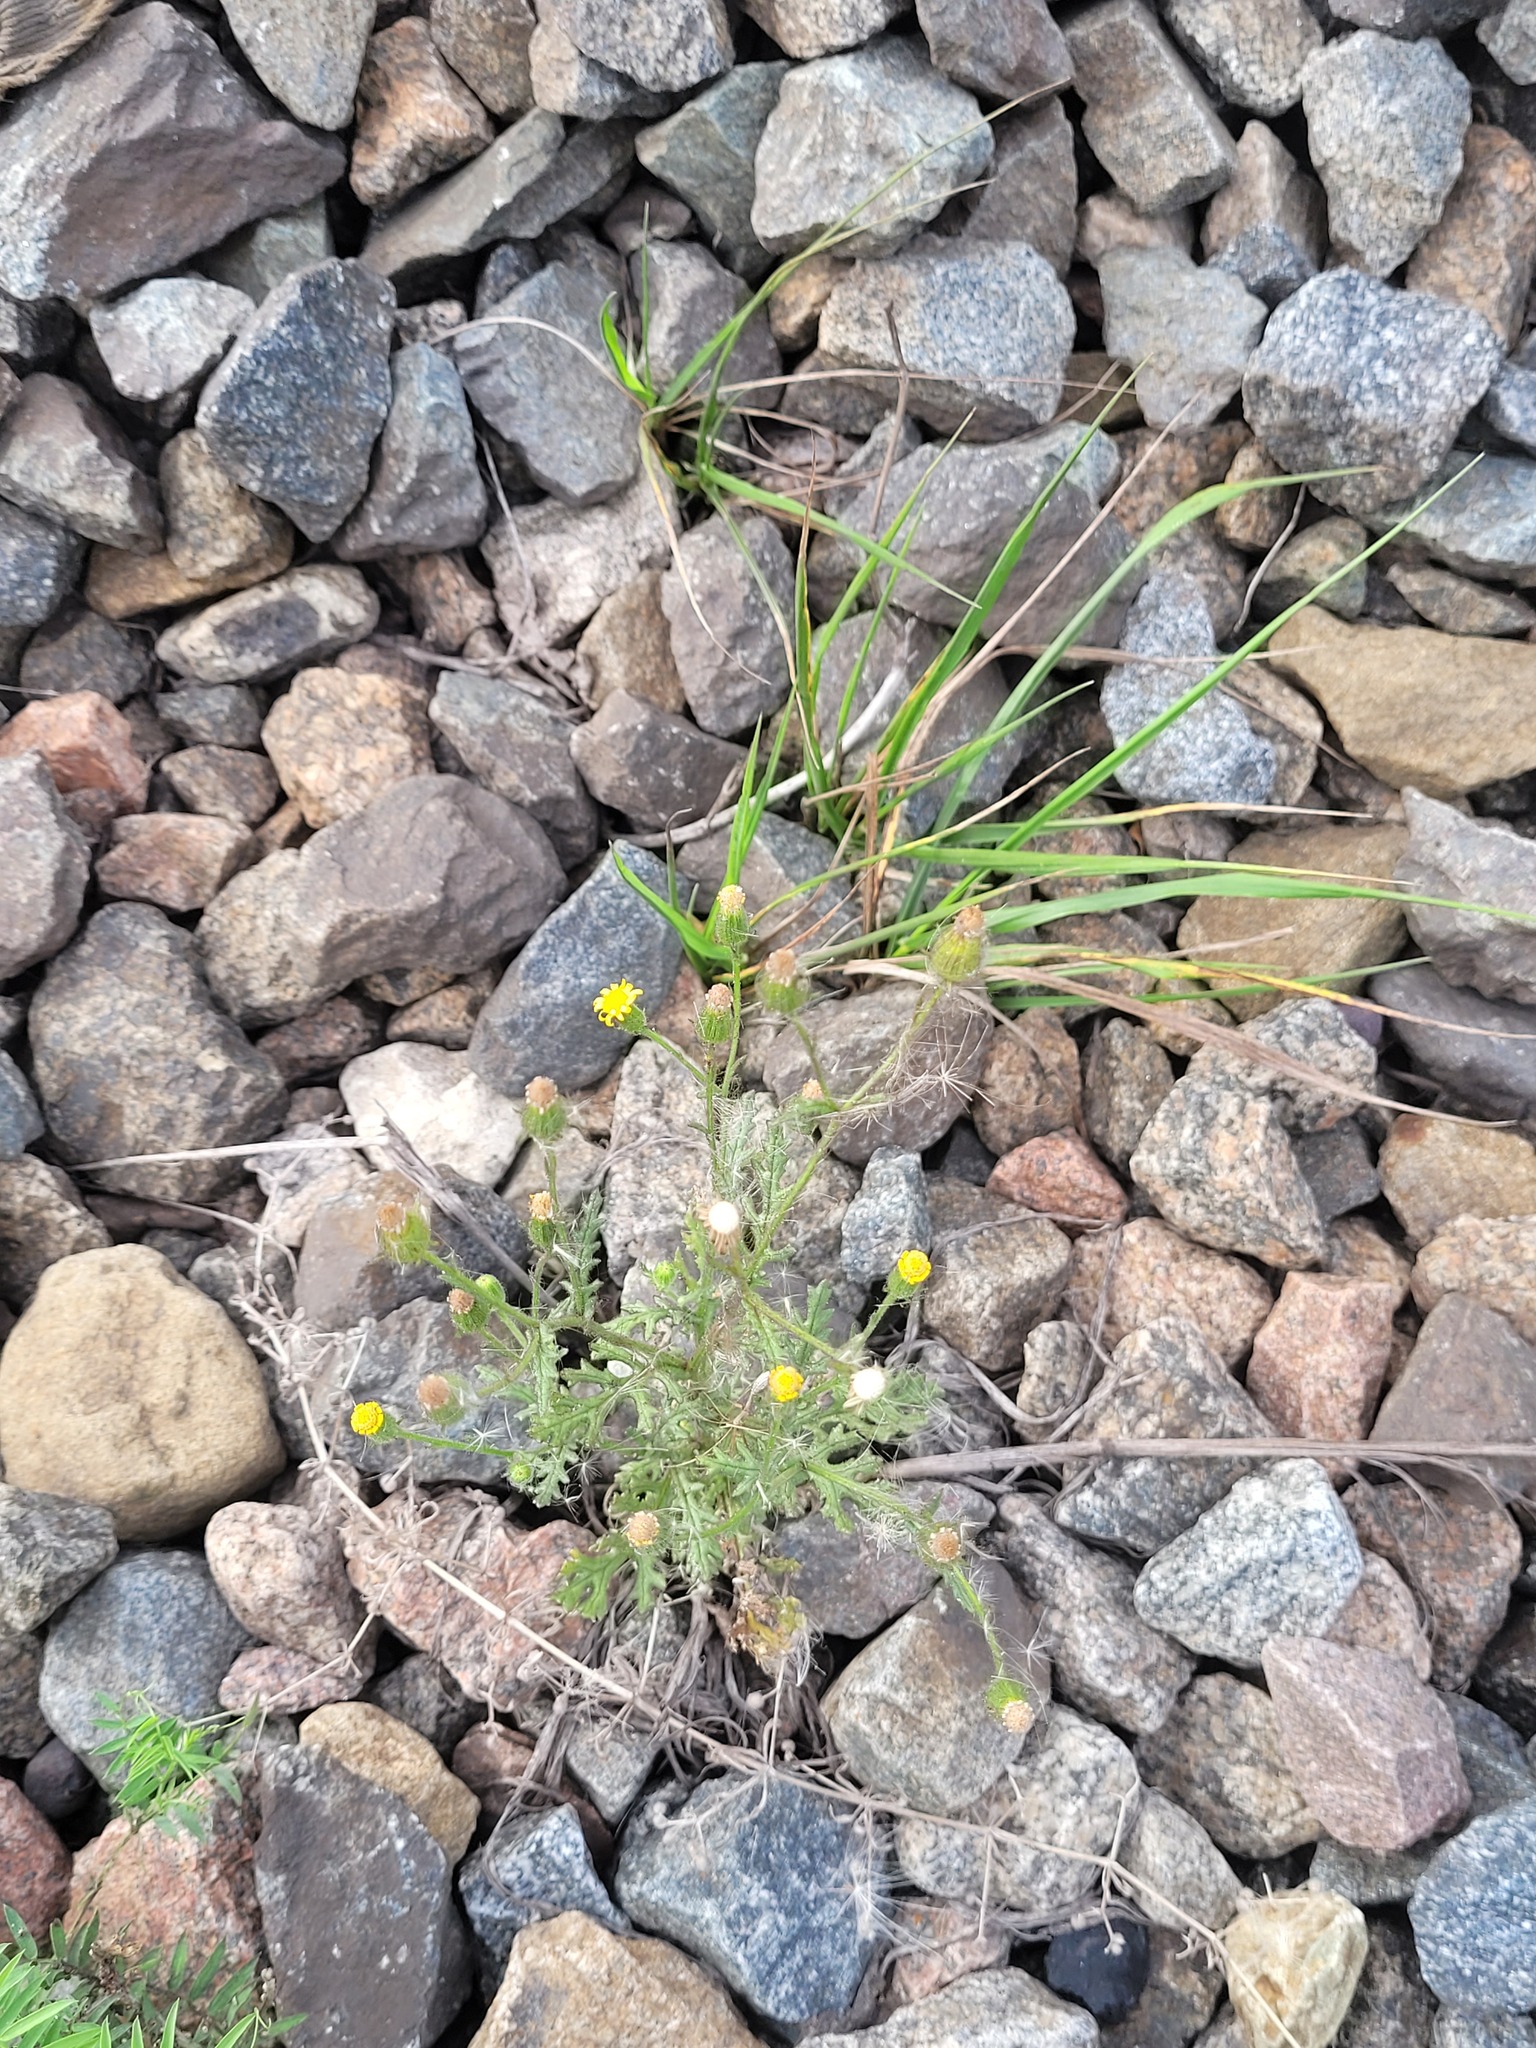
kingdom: Plantae
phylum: Tracheophyta
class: Magnoliopsida
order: Asterales
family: Asteraceae
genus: Senecio
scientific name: Senecio viscosus
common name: Sticky groundsel
